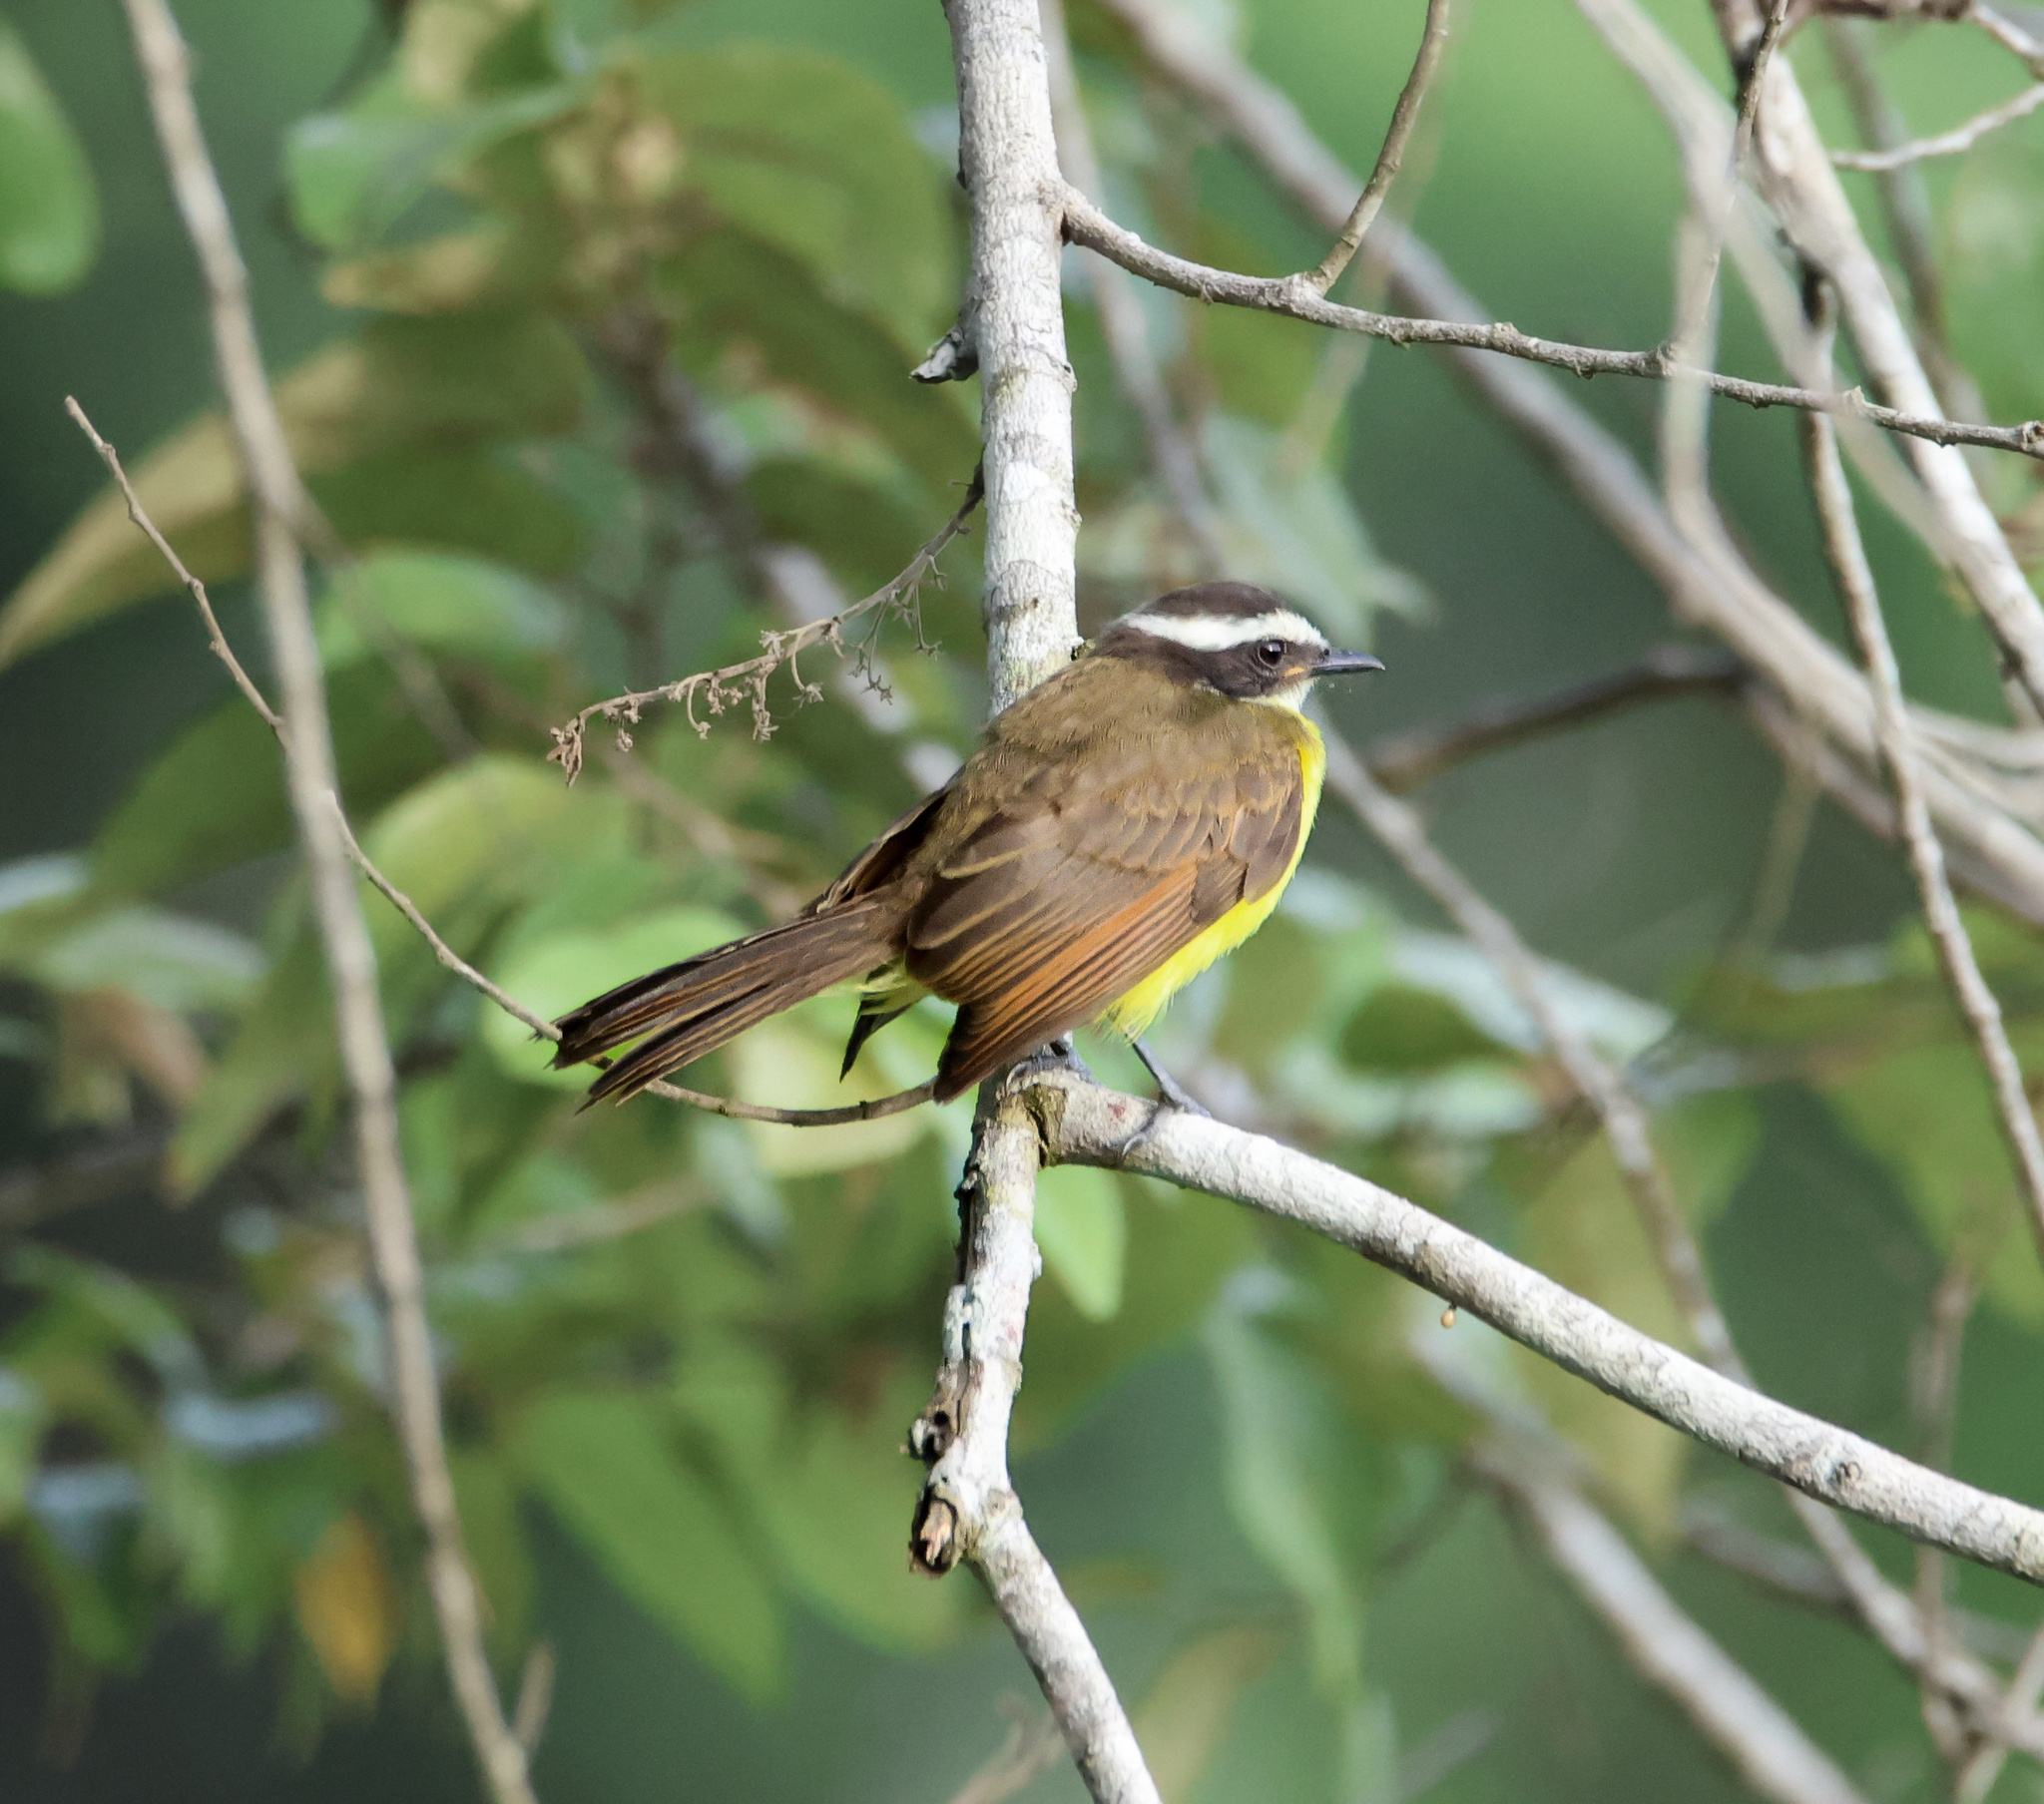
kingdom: Animalia
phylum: Chordata
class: Aves
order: Passeriformes
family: Tyrannidae
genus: Myiozetetes
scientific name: Myiozetetes cayanensis
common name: Rusty-margined flycatcher
